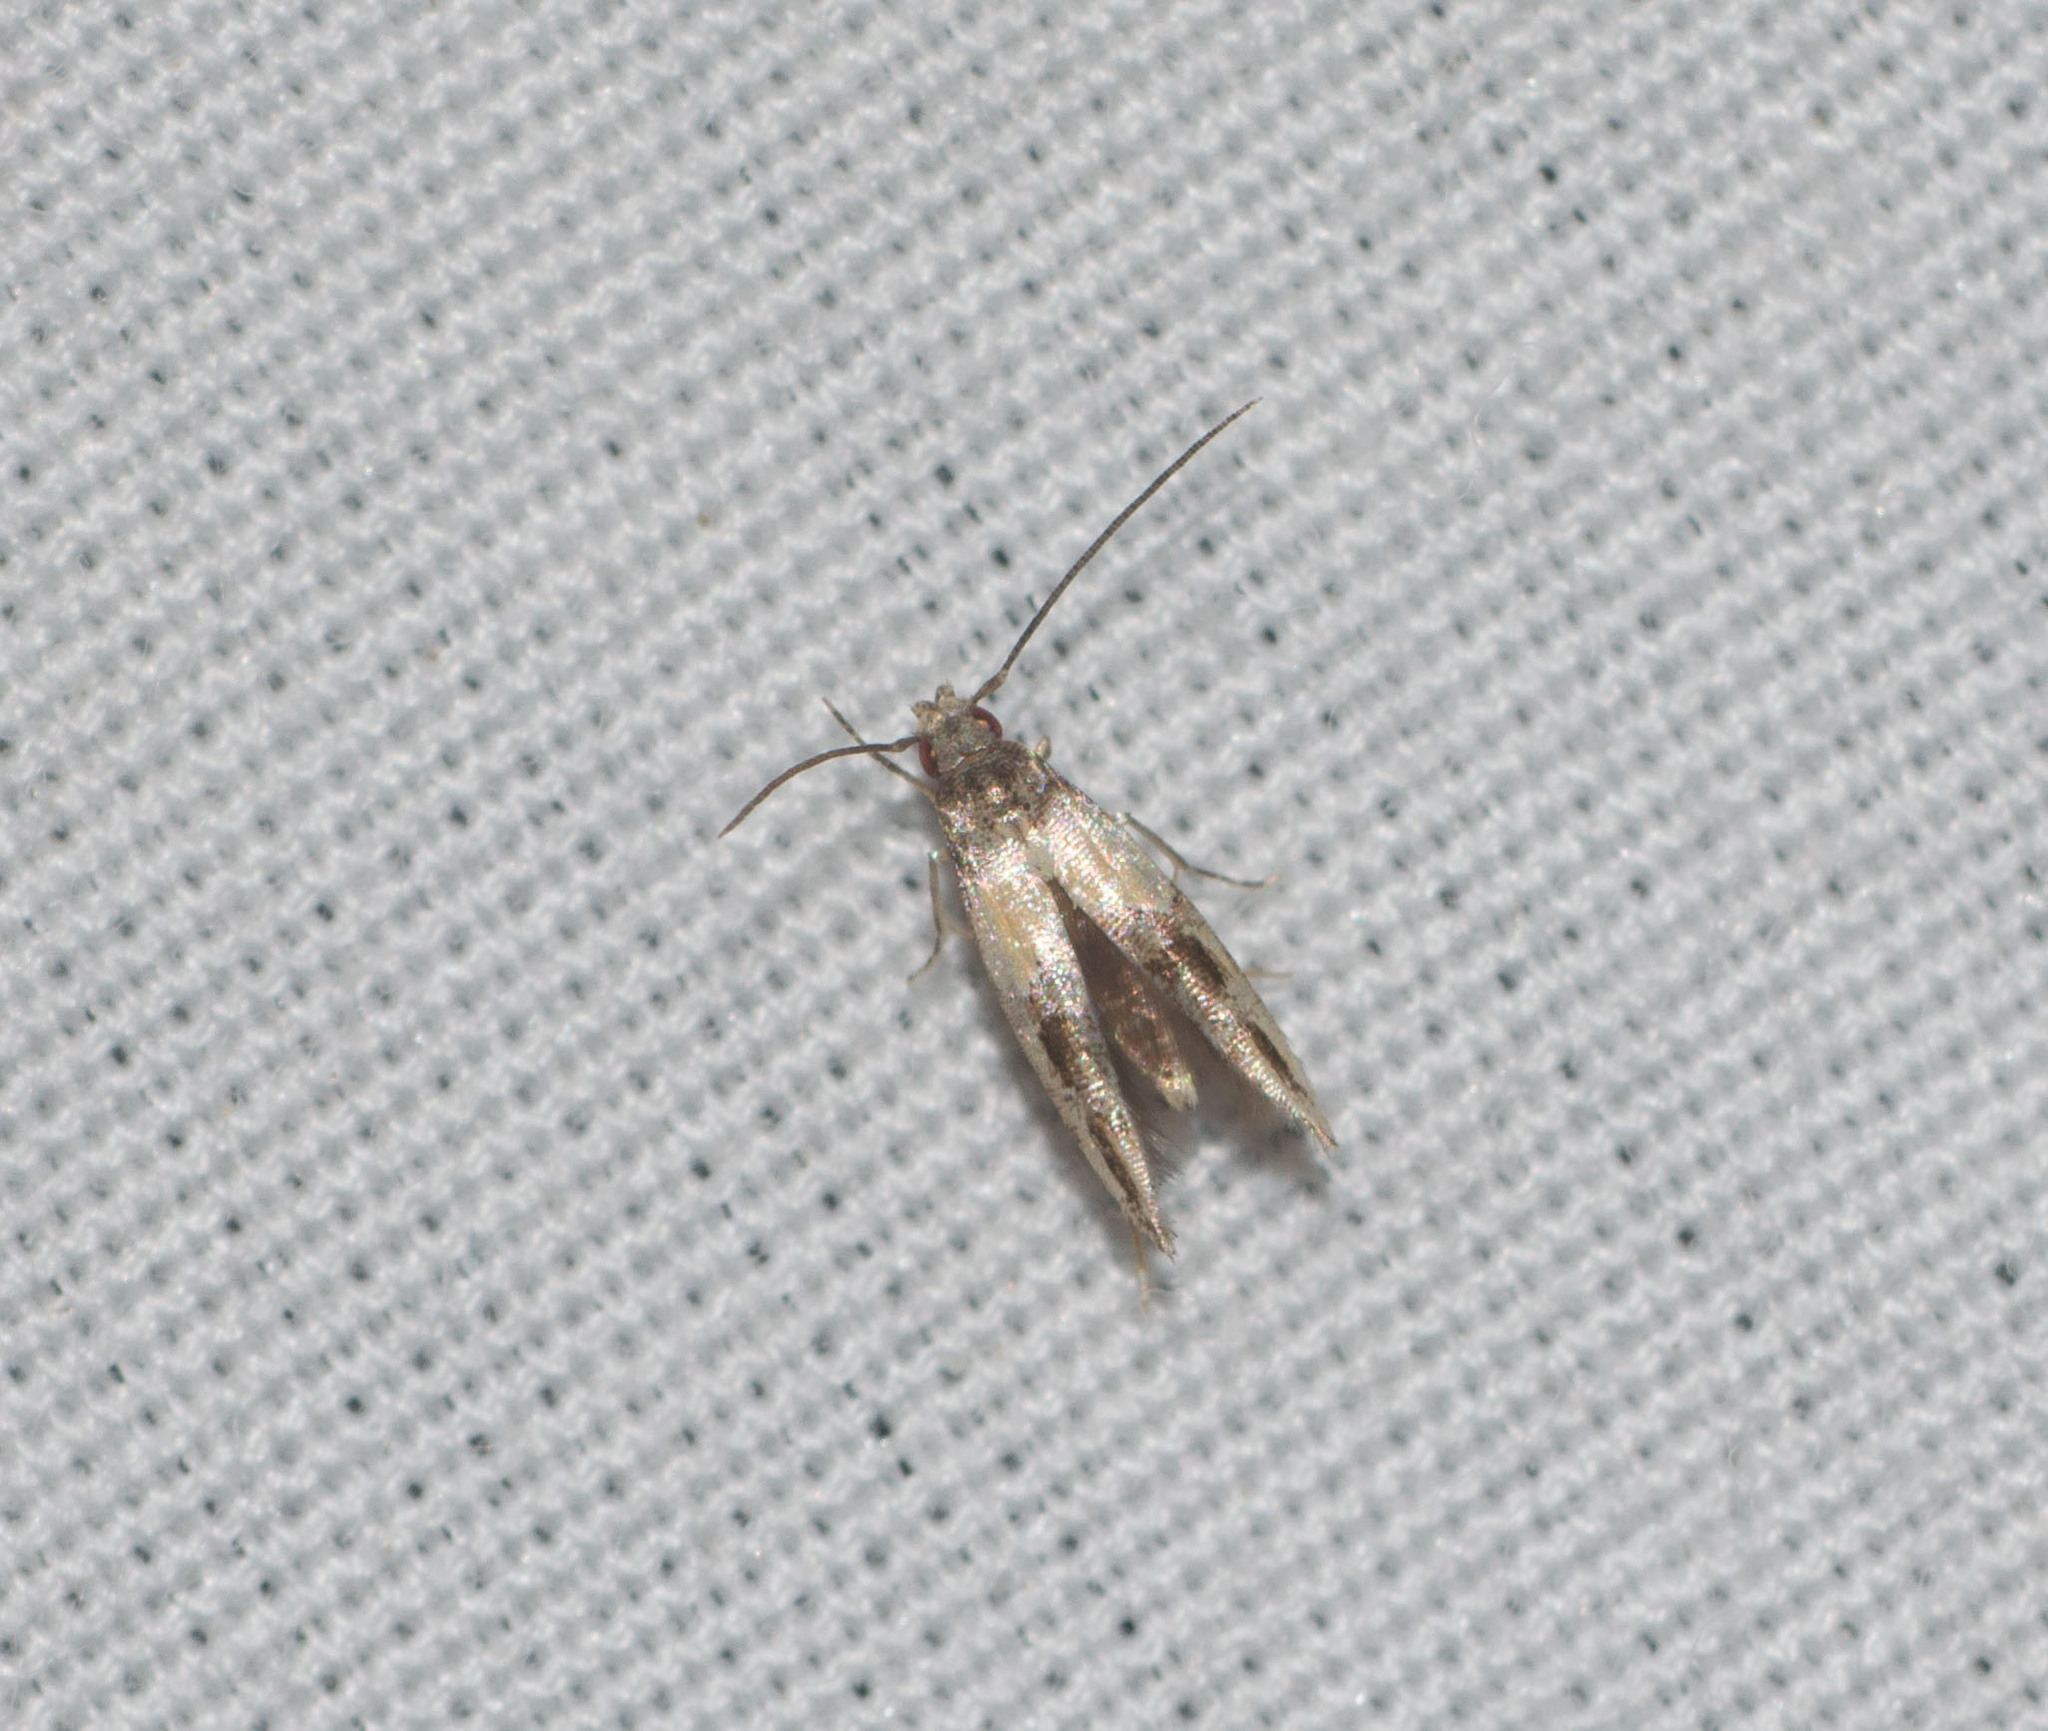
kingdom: Animalia
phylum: Arthropoda
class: Insecta
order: Lepidoptera
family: Momphidae
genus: Mompha
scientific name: Mompha trithalama
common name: Moth
